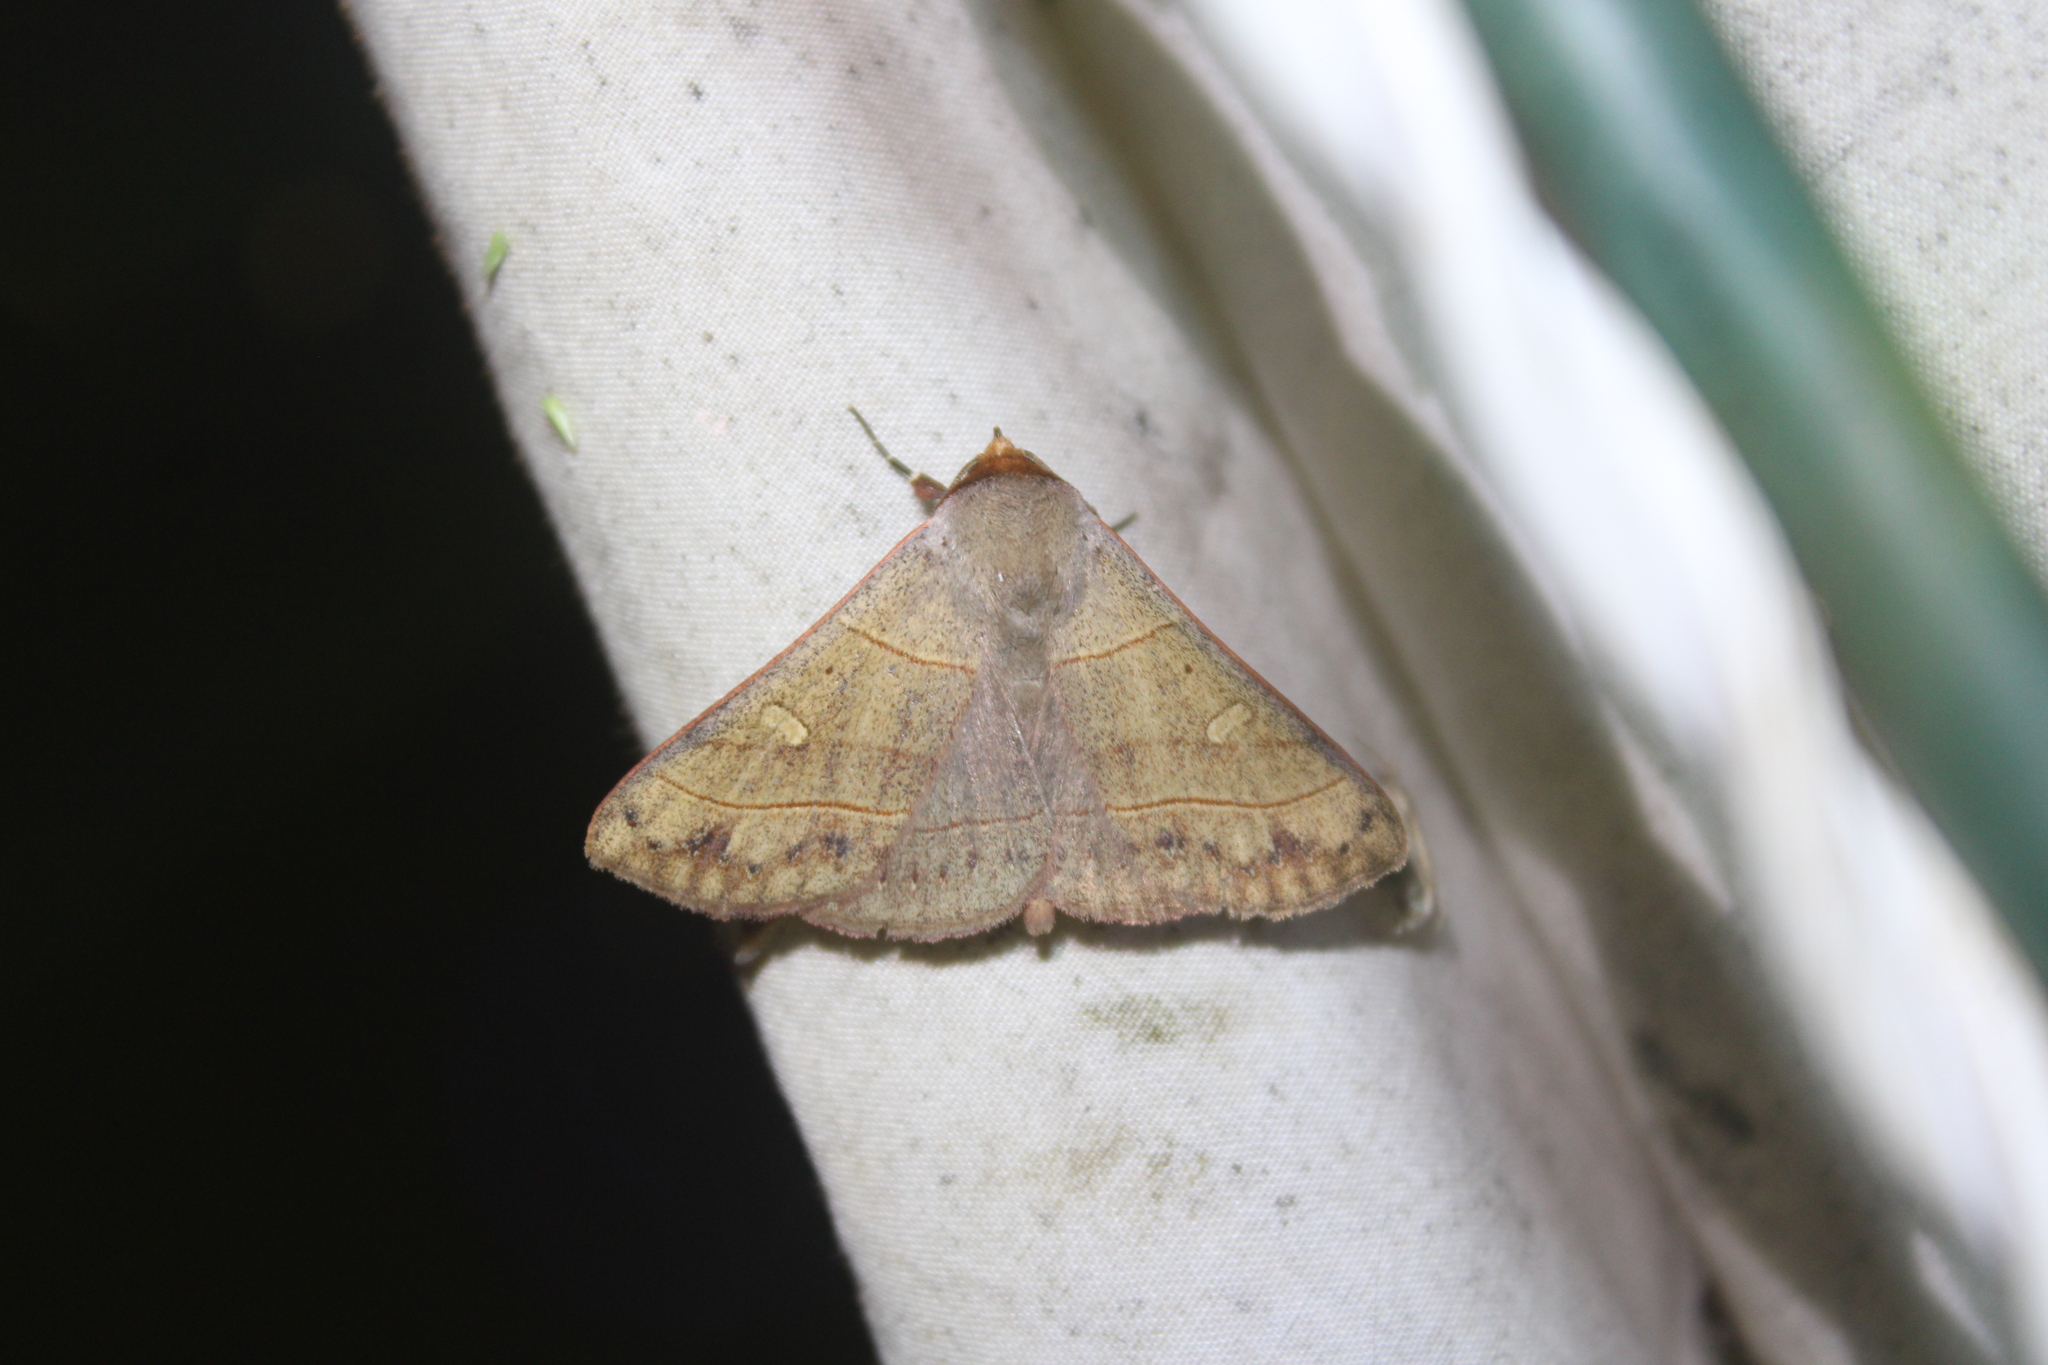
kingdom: Animalia
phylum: Arthropoda
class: Insecta
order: Lepidoptera
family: Erebidae
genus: Panopoda
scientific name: Panopoda rufimargo
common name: Red-lined panopoda moth
